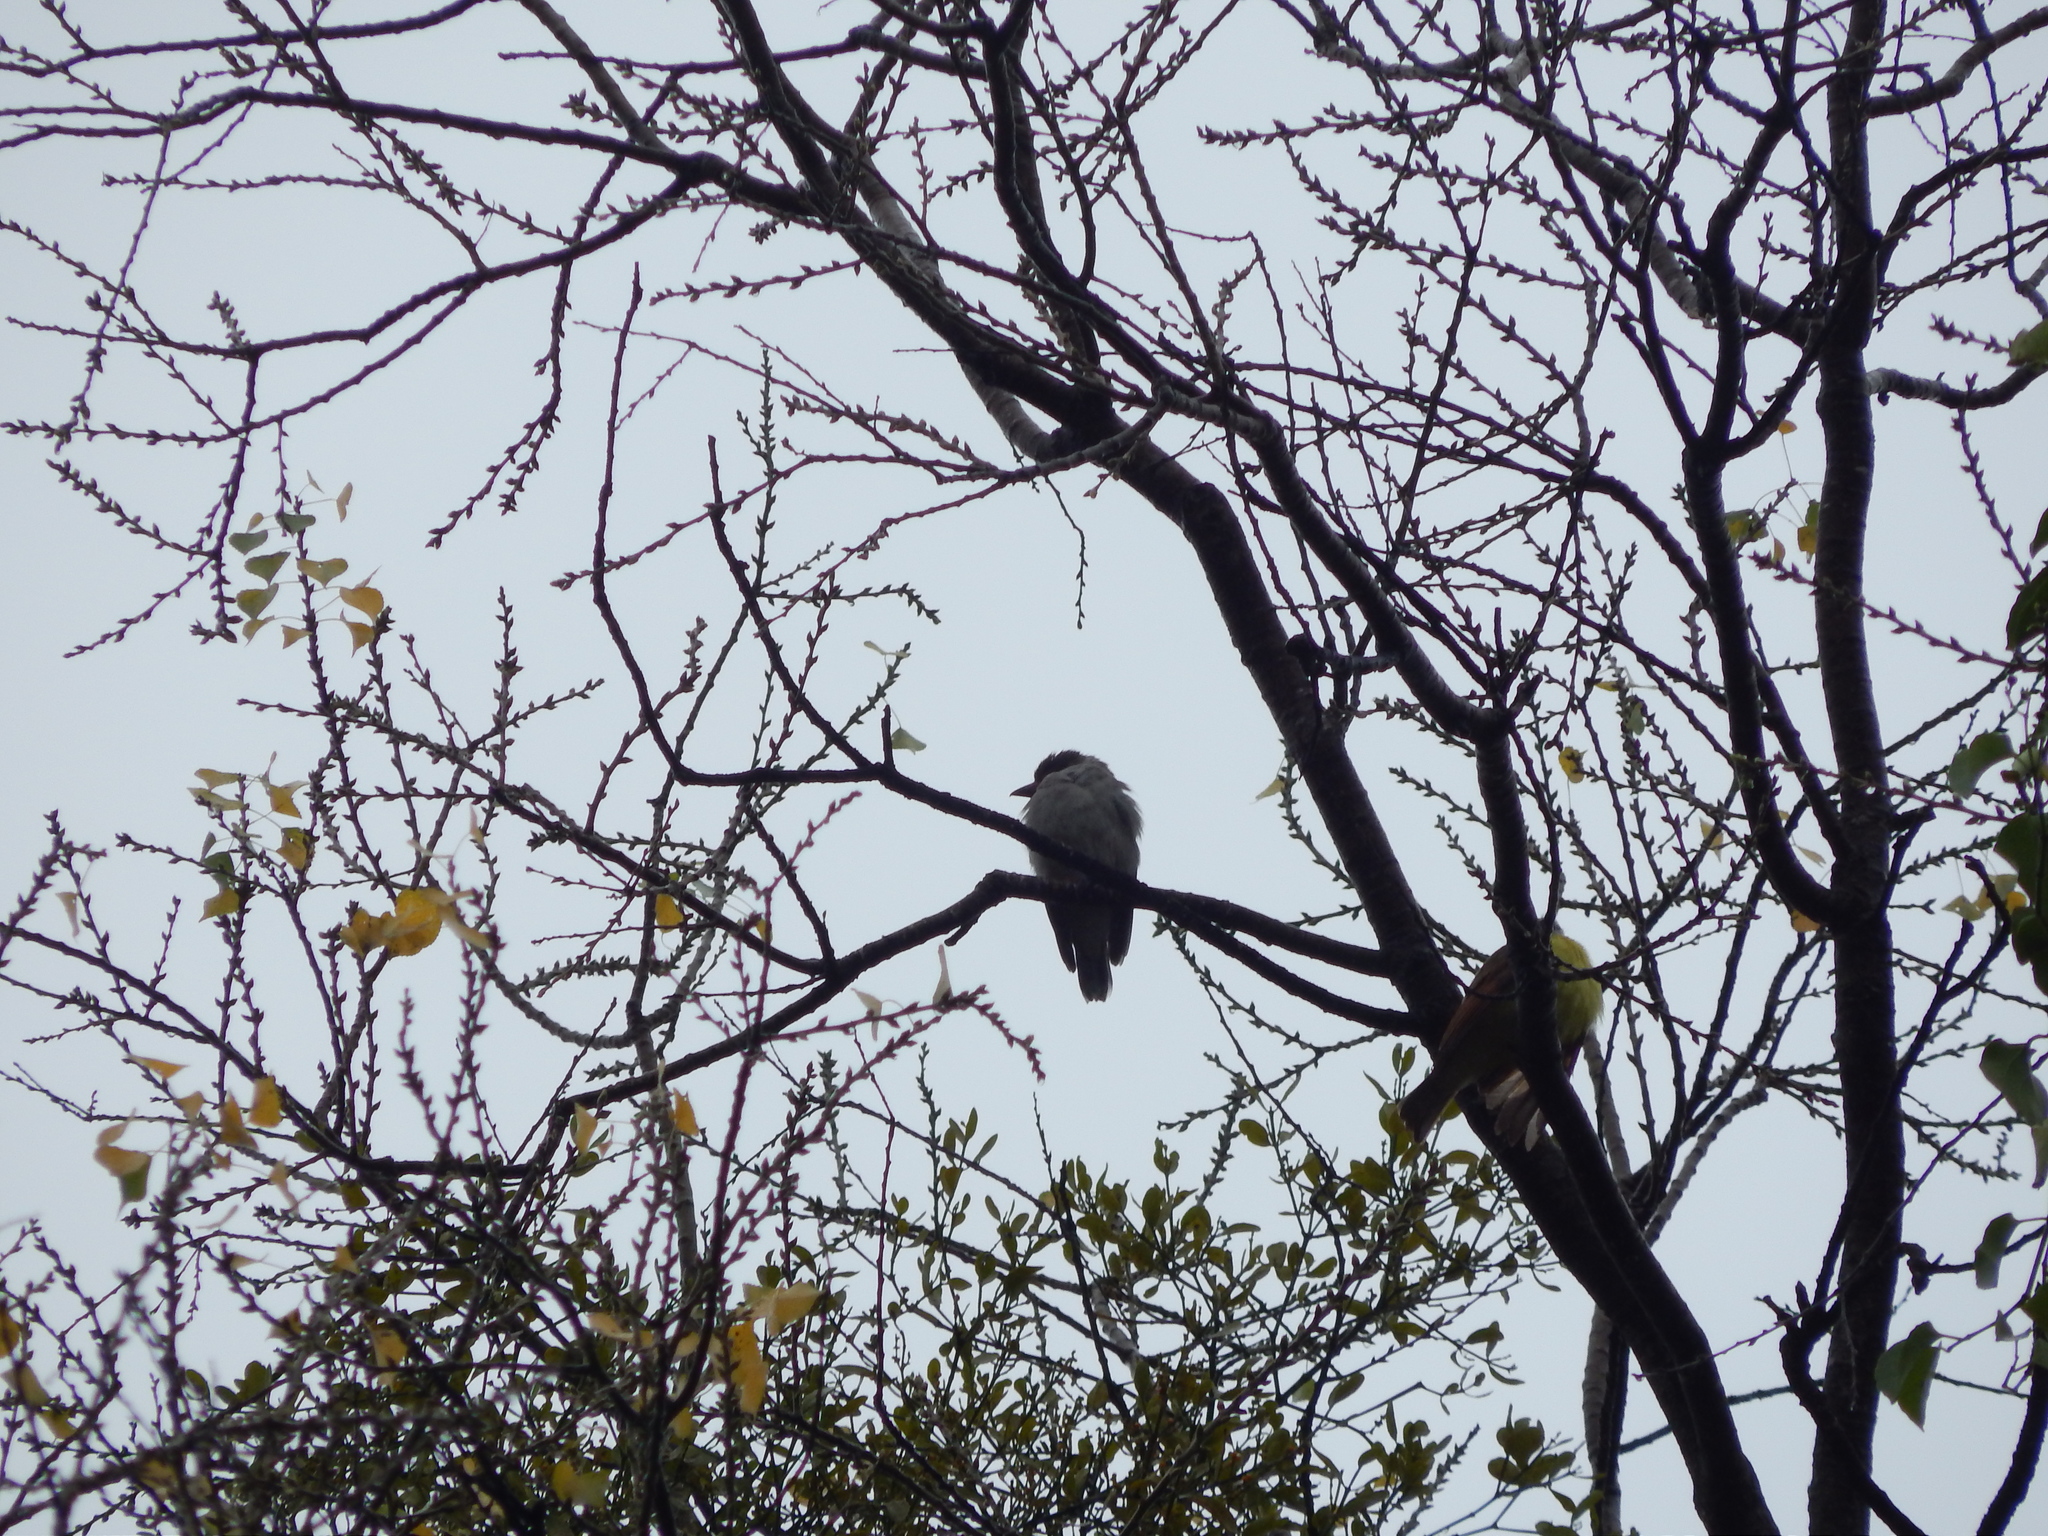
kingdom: Animalia
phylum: Chordata
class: Aves
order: Passeriformes
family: Cotingidae
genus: Tityra
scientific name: Tityra semifasciata
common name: Masked tityra
